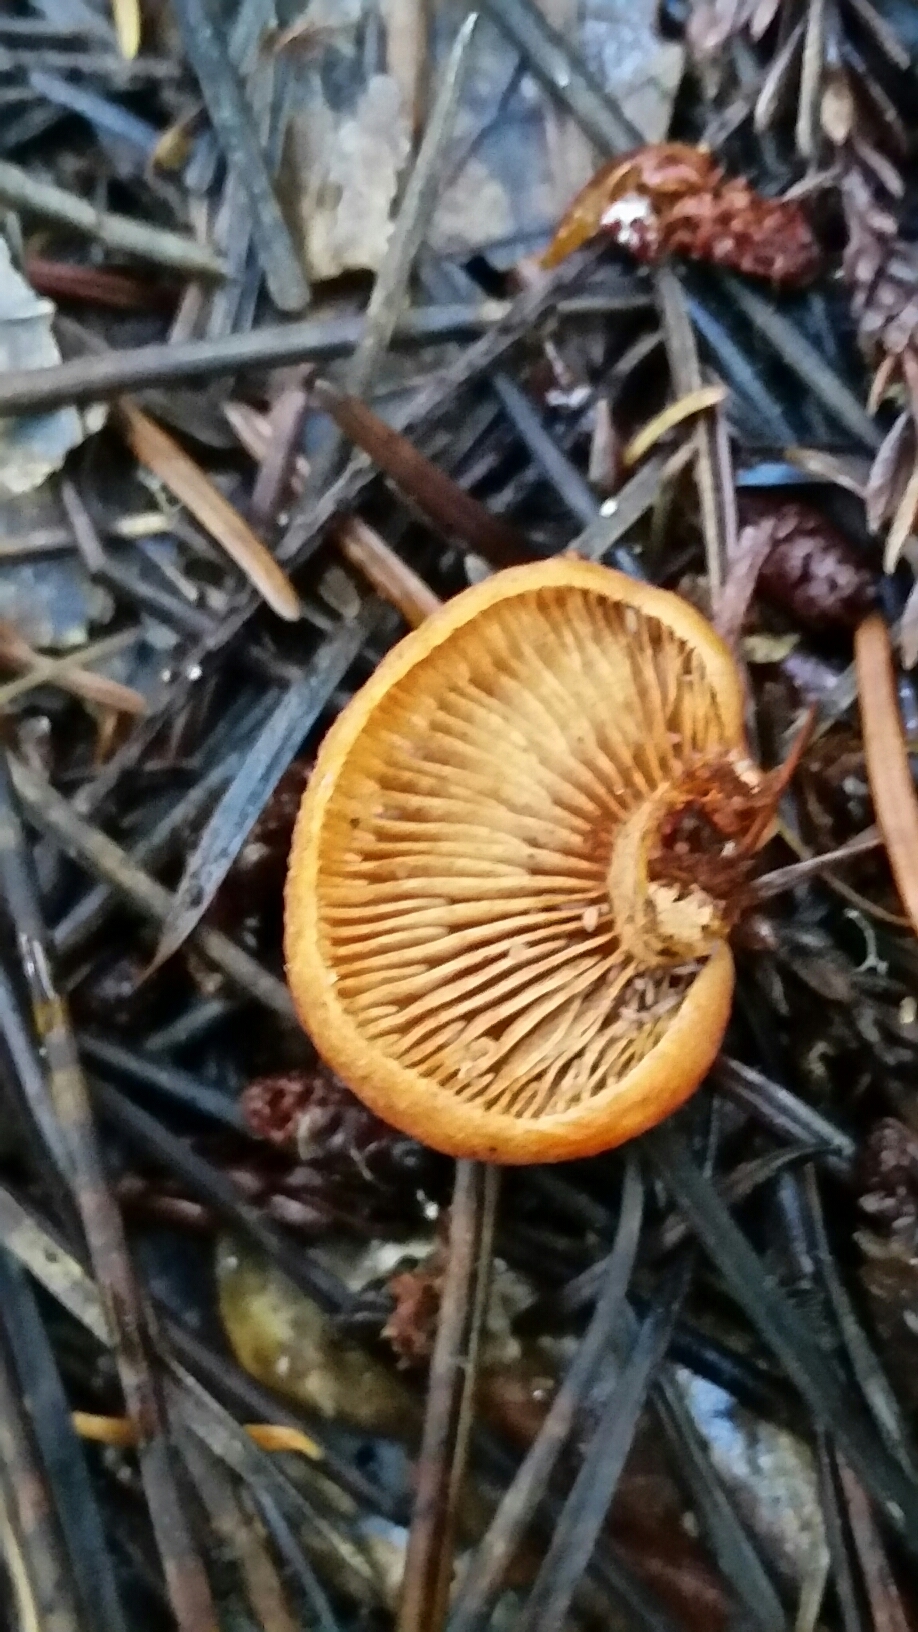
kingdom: Fungi
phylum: Basidiomycota
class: Agaricomycetes
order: Agaricales
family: Hymenogastraceae
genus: Gymnopilus
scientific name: Gymnopilus aurantiophyllus
